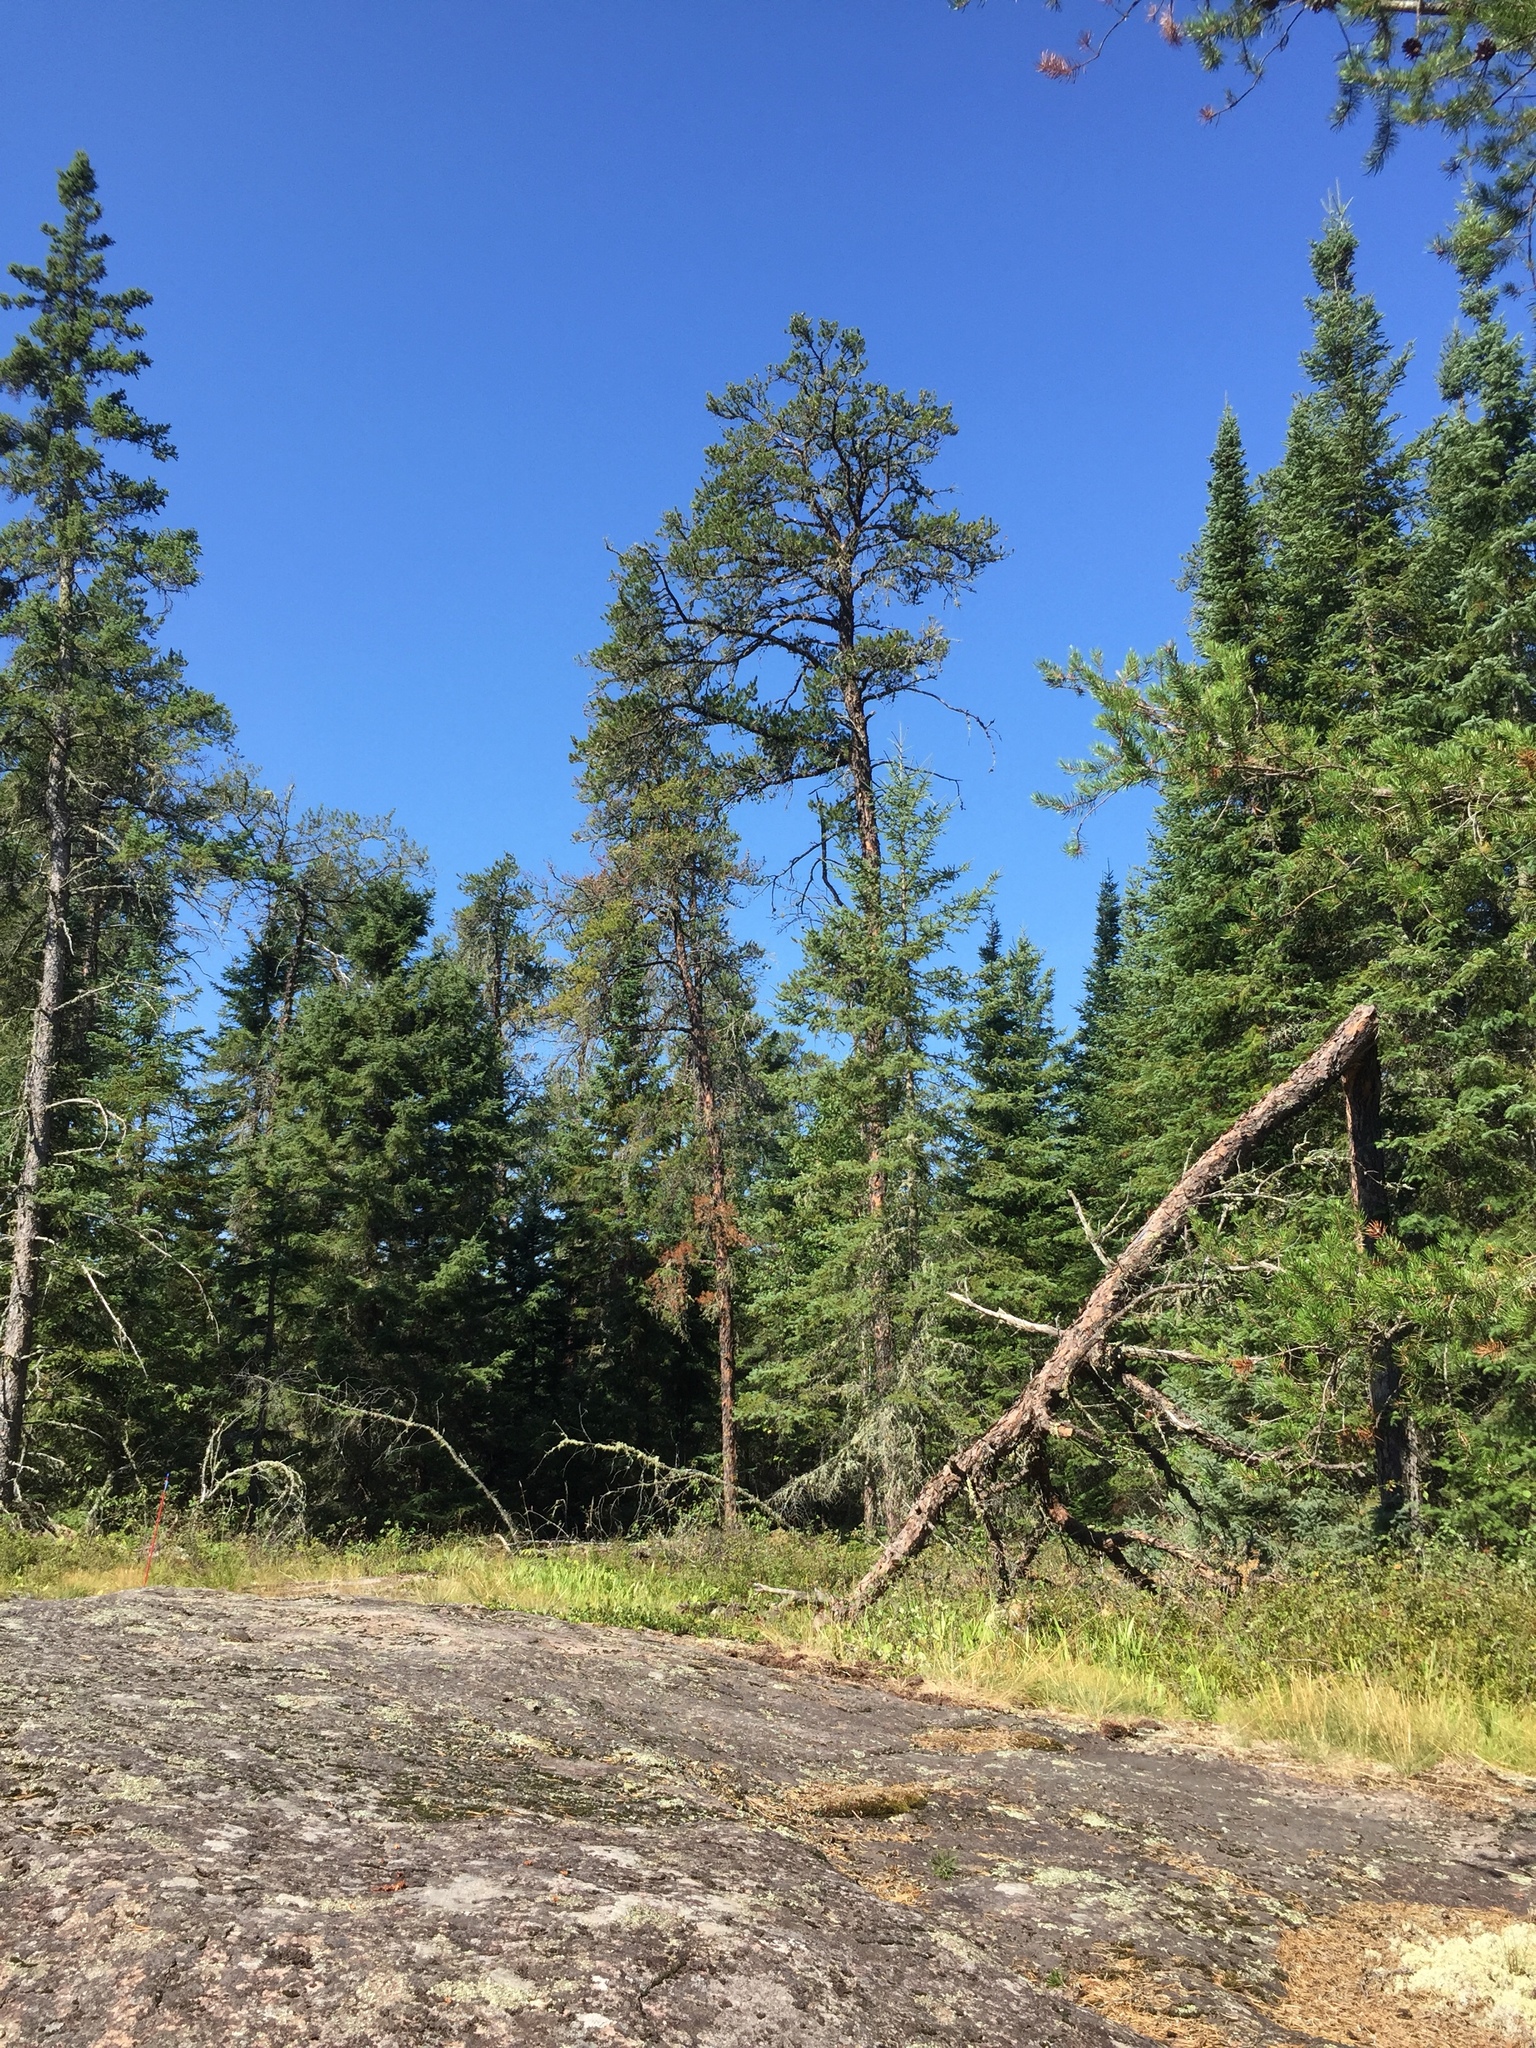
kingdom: Plantae
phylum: Tracheophyta
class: Pinopsida
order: Pinales
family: Pinaceae
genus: Pinus
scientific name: Pinus banksiana
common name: Jack pine
